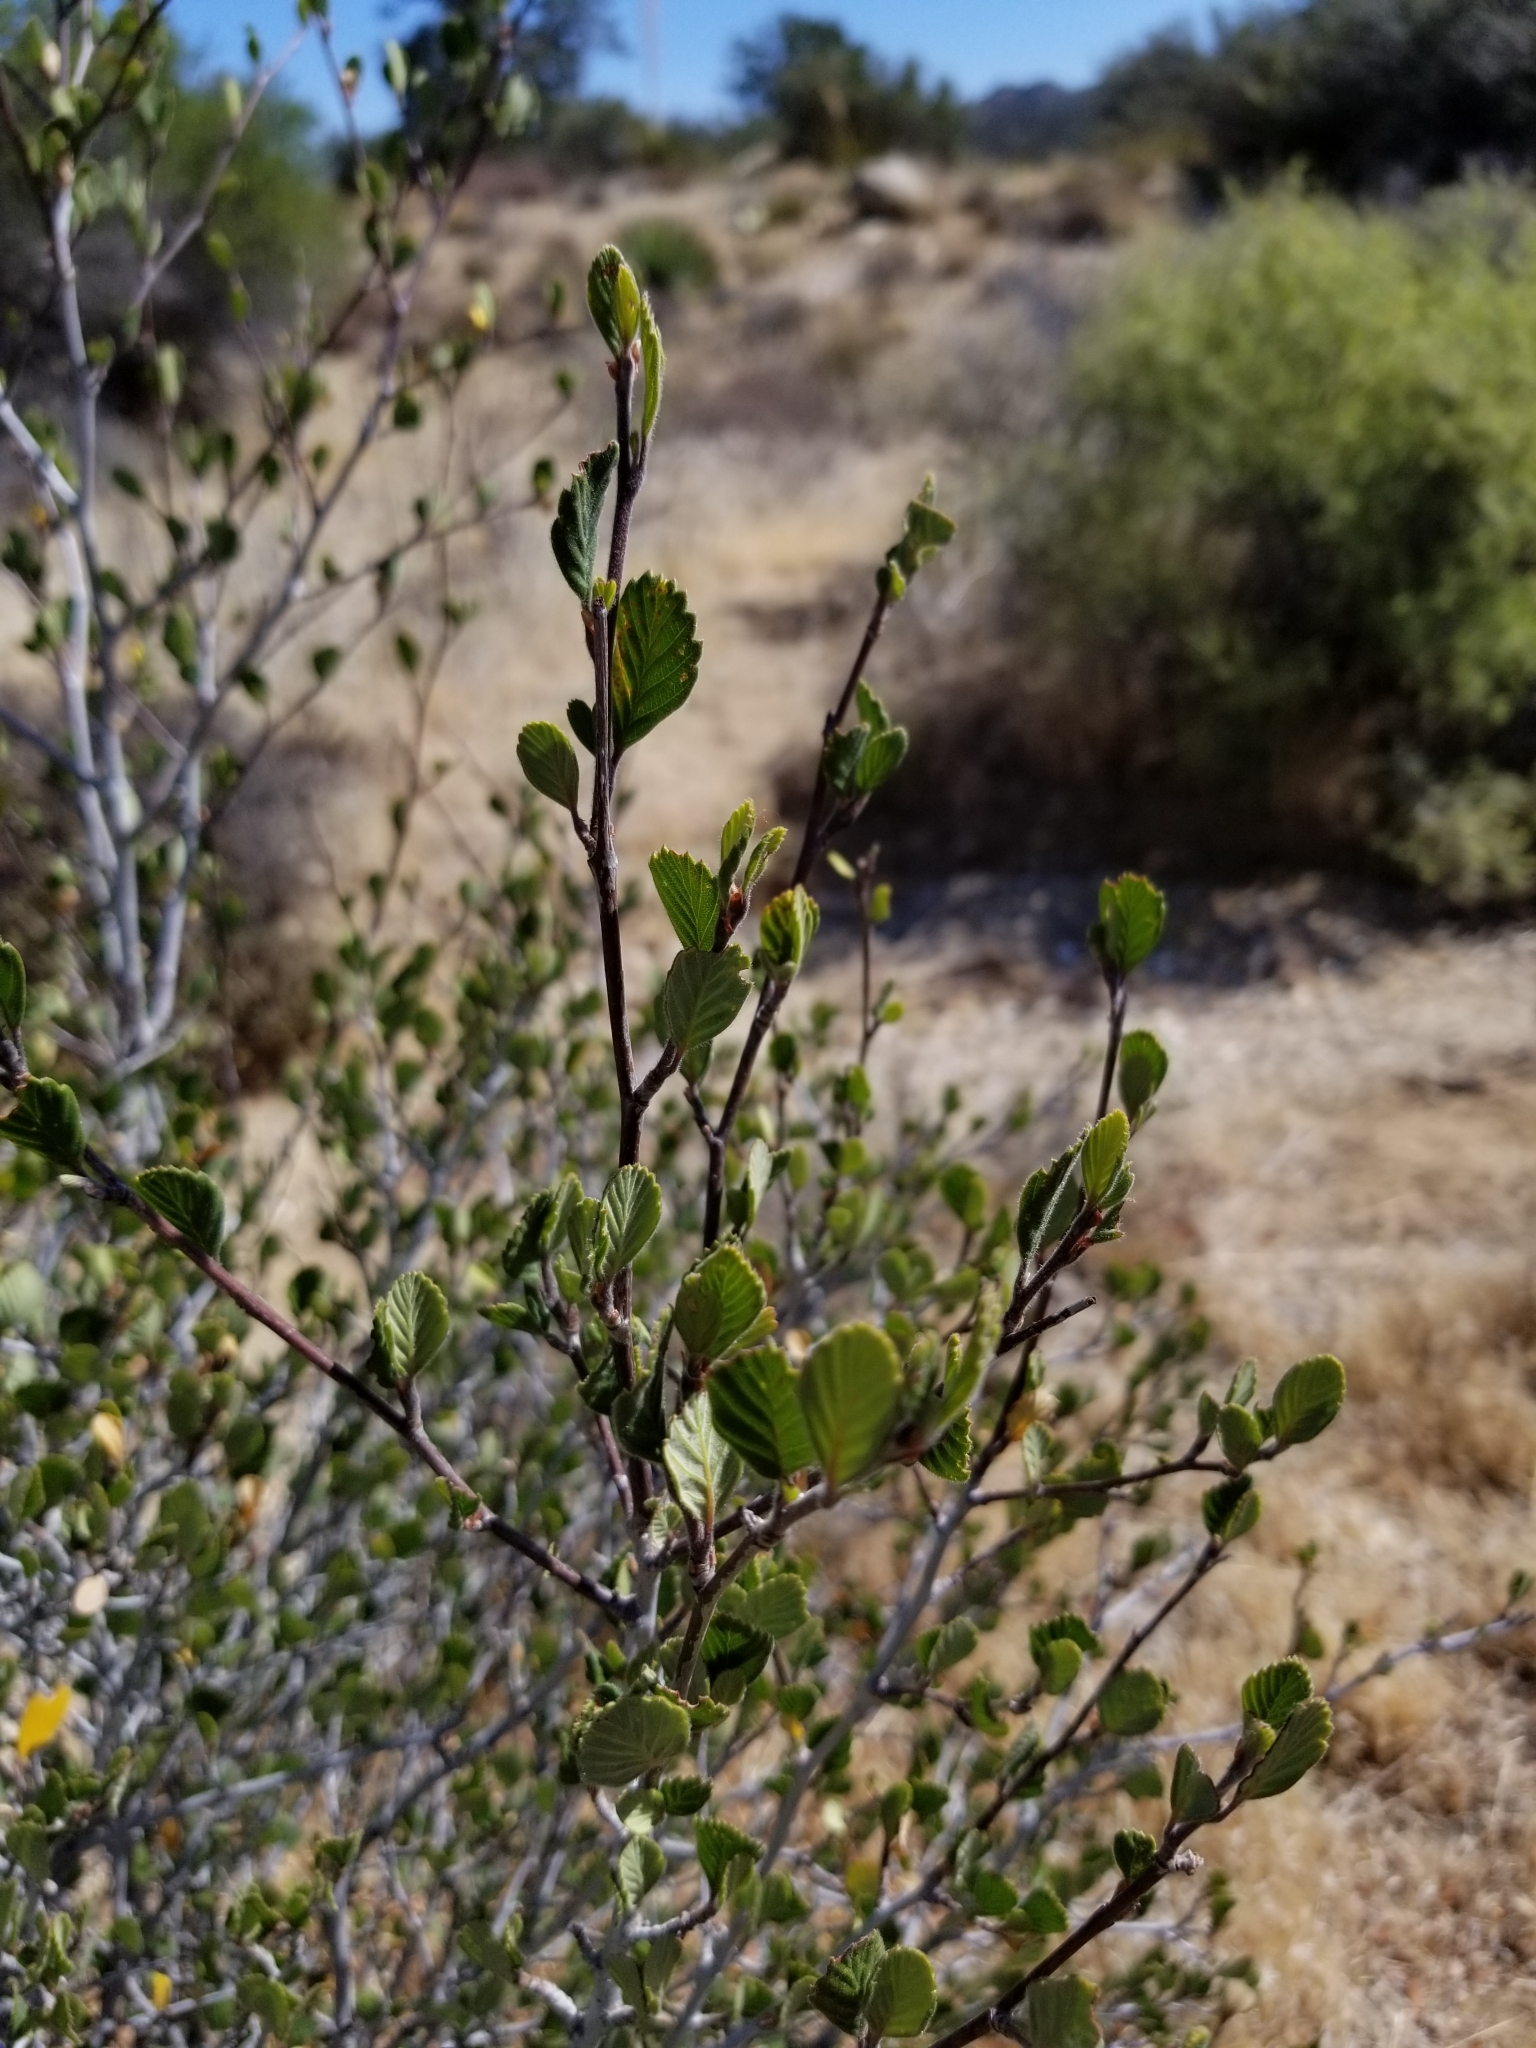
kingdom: Plantae
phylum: Tracheophyta
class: Magnoliopsida
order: Rosales
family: Rosaceae
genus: Cercocarpus
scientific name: Cercocarpus betuloides
